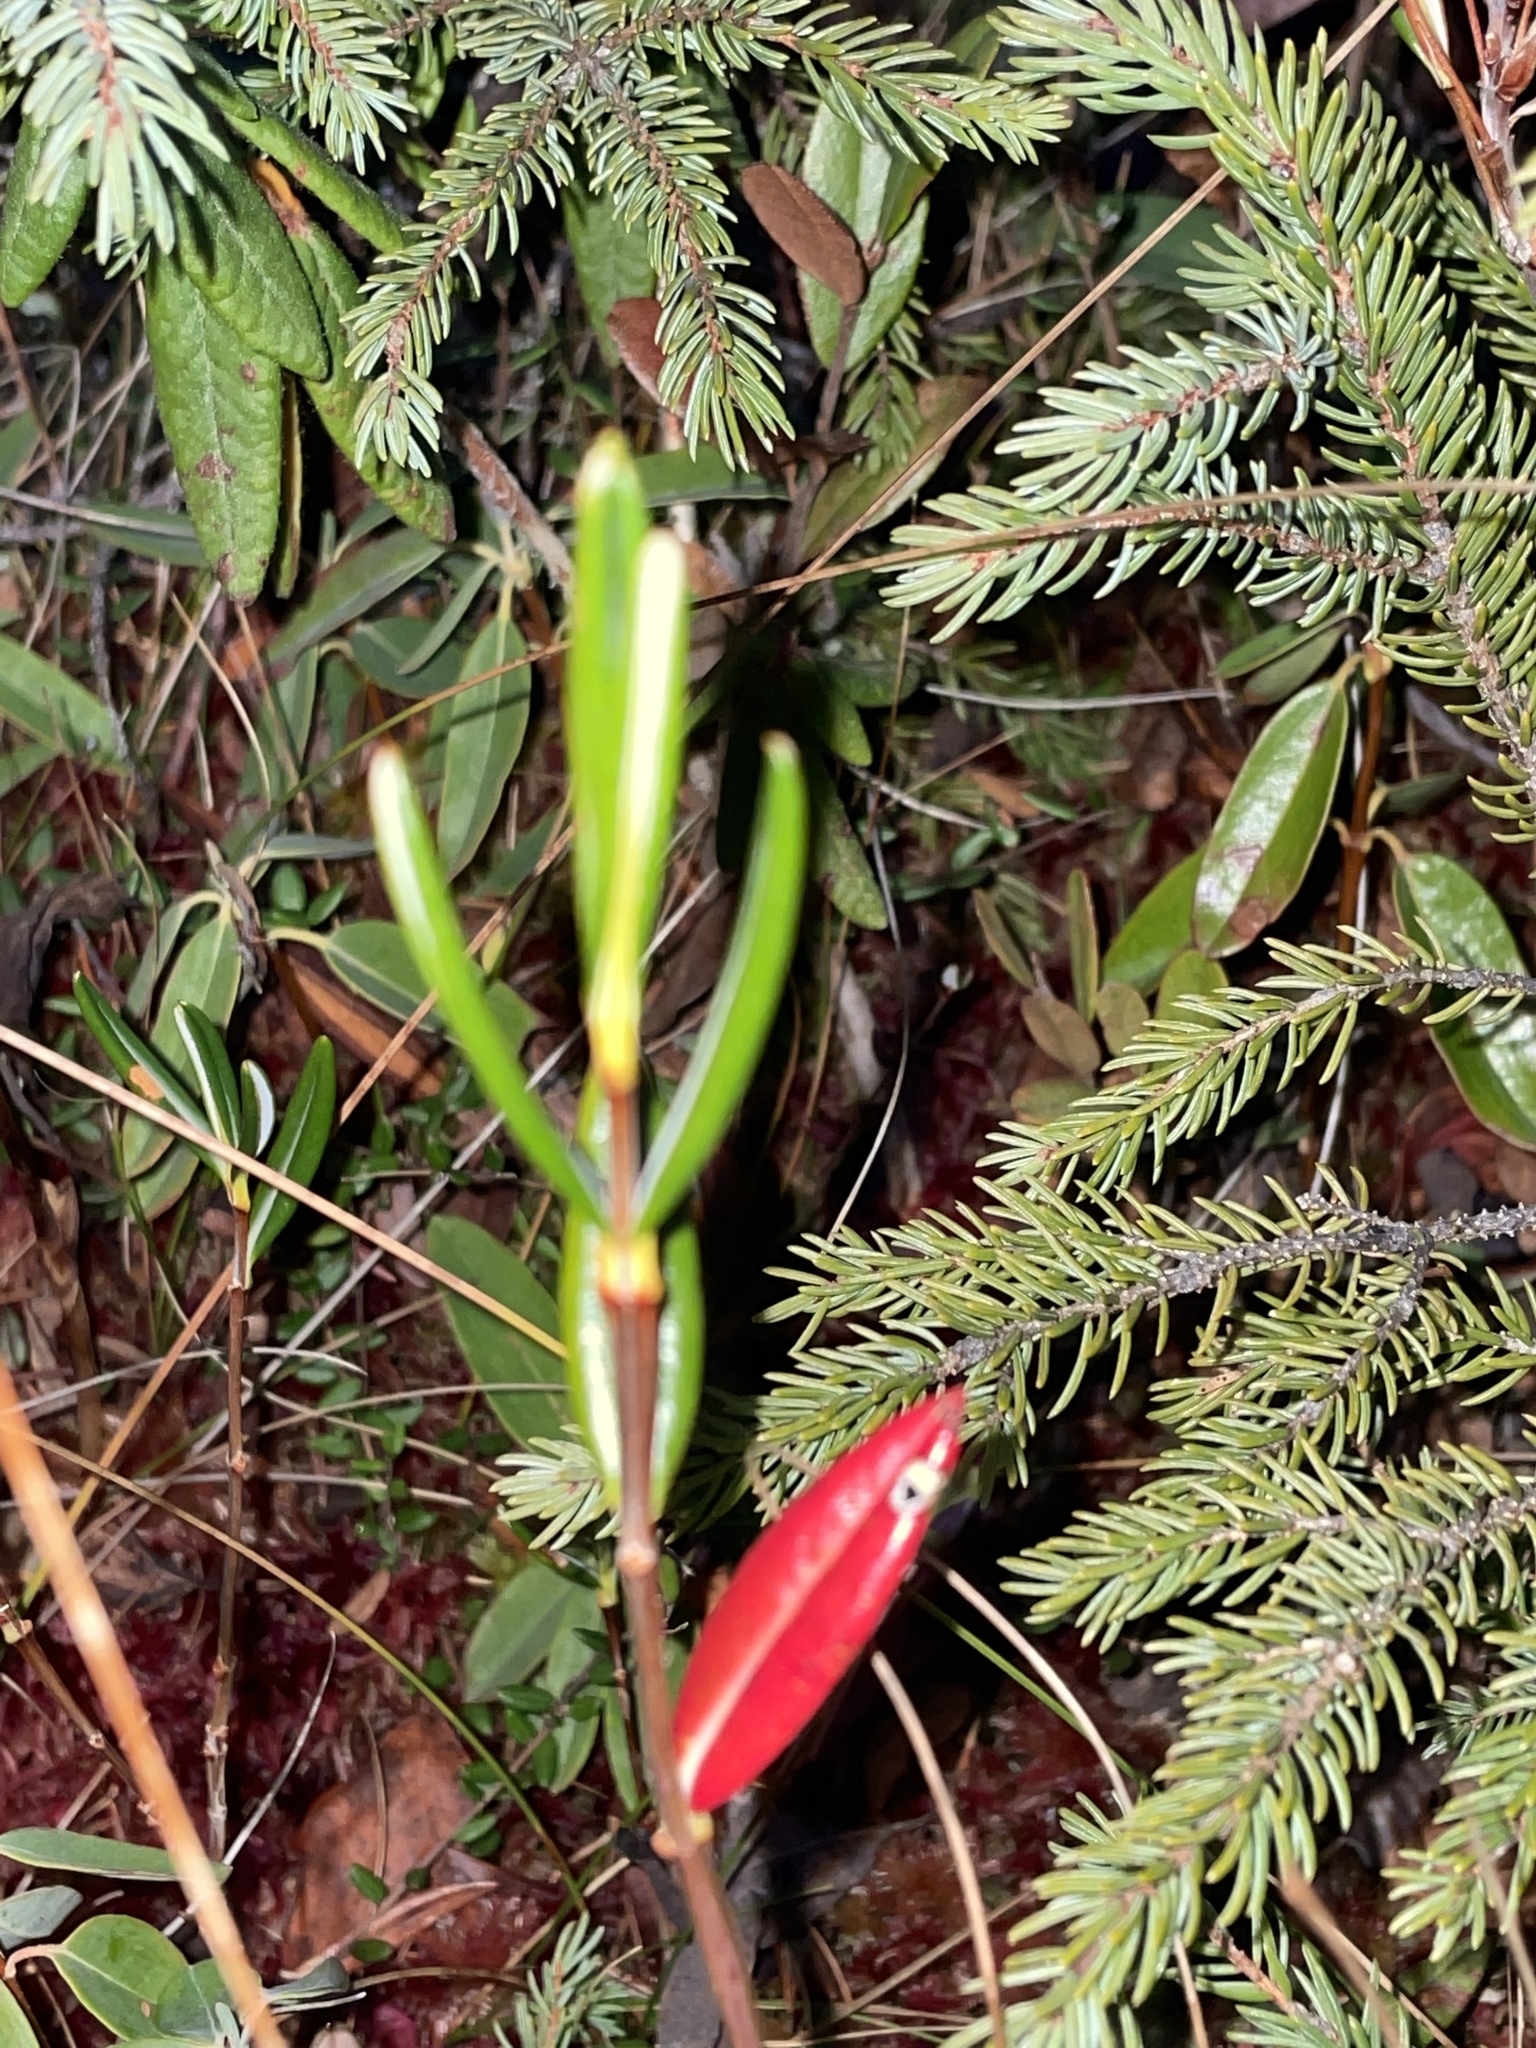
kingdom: Plantae
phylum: Tracheophyta
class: Magnoliopsida
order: Ericales
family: Ericaceae
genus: Kalmia
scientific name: Kalmia polifolia
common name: Bog-laurel
